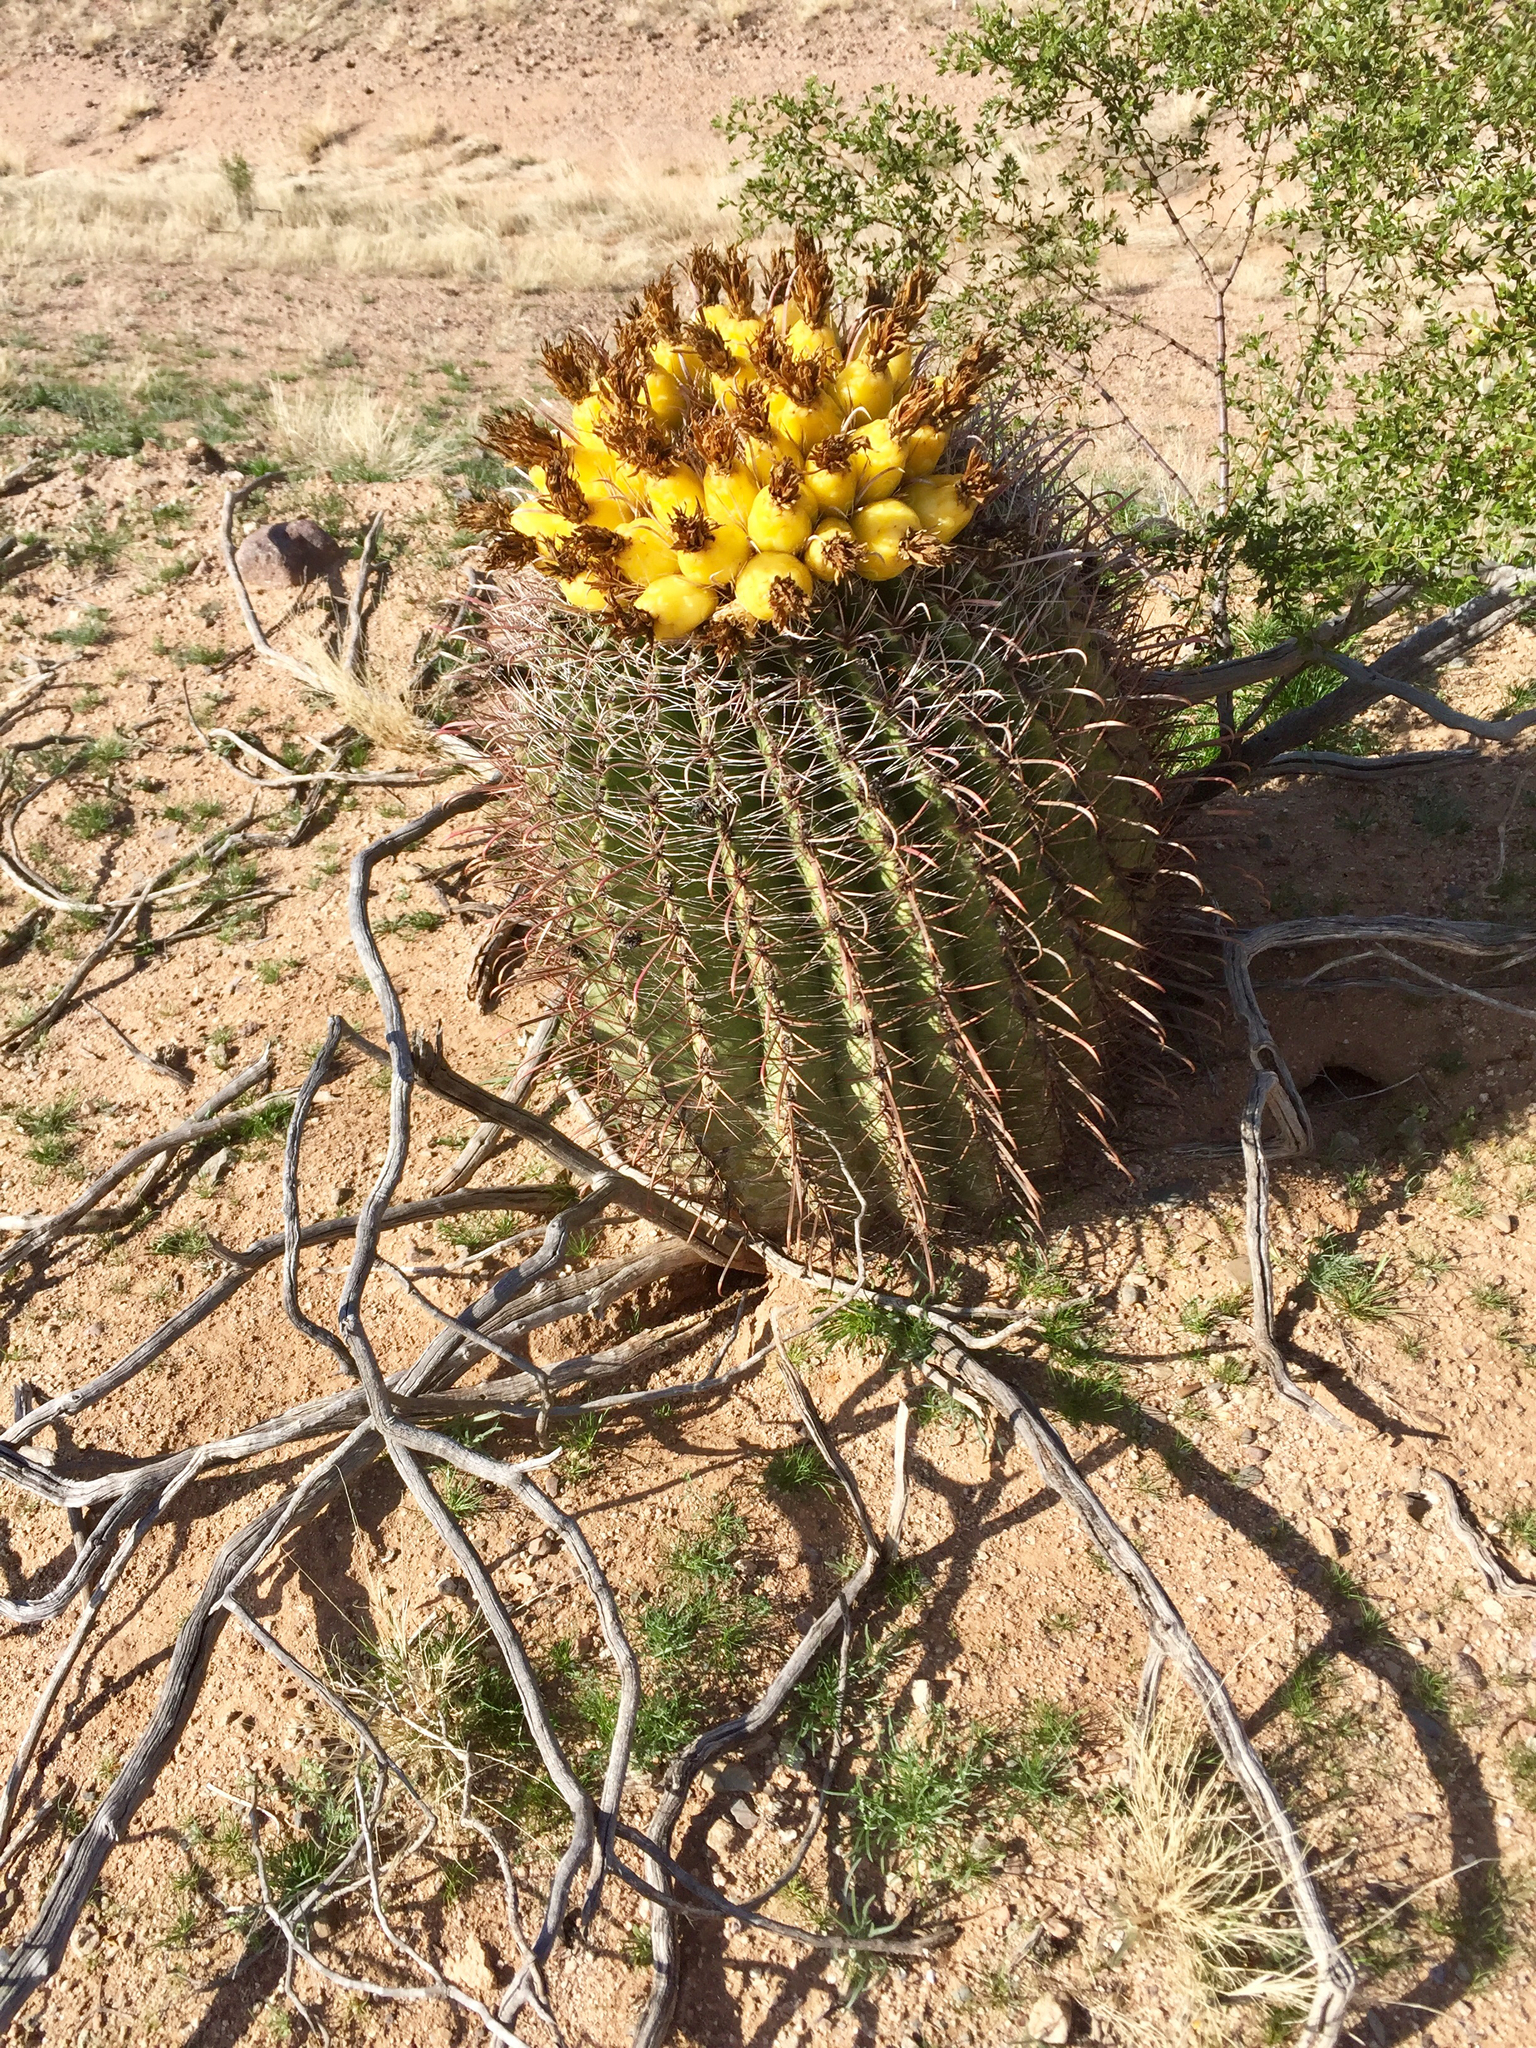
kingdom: Plantae
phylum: Tracheophyta
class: Magnoliopsida
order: Caryophyllales
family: Cactaceae
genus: Ferocactus
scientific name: Ferocactus wislizeni
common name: Candy barrel cactus
